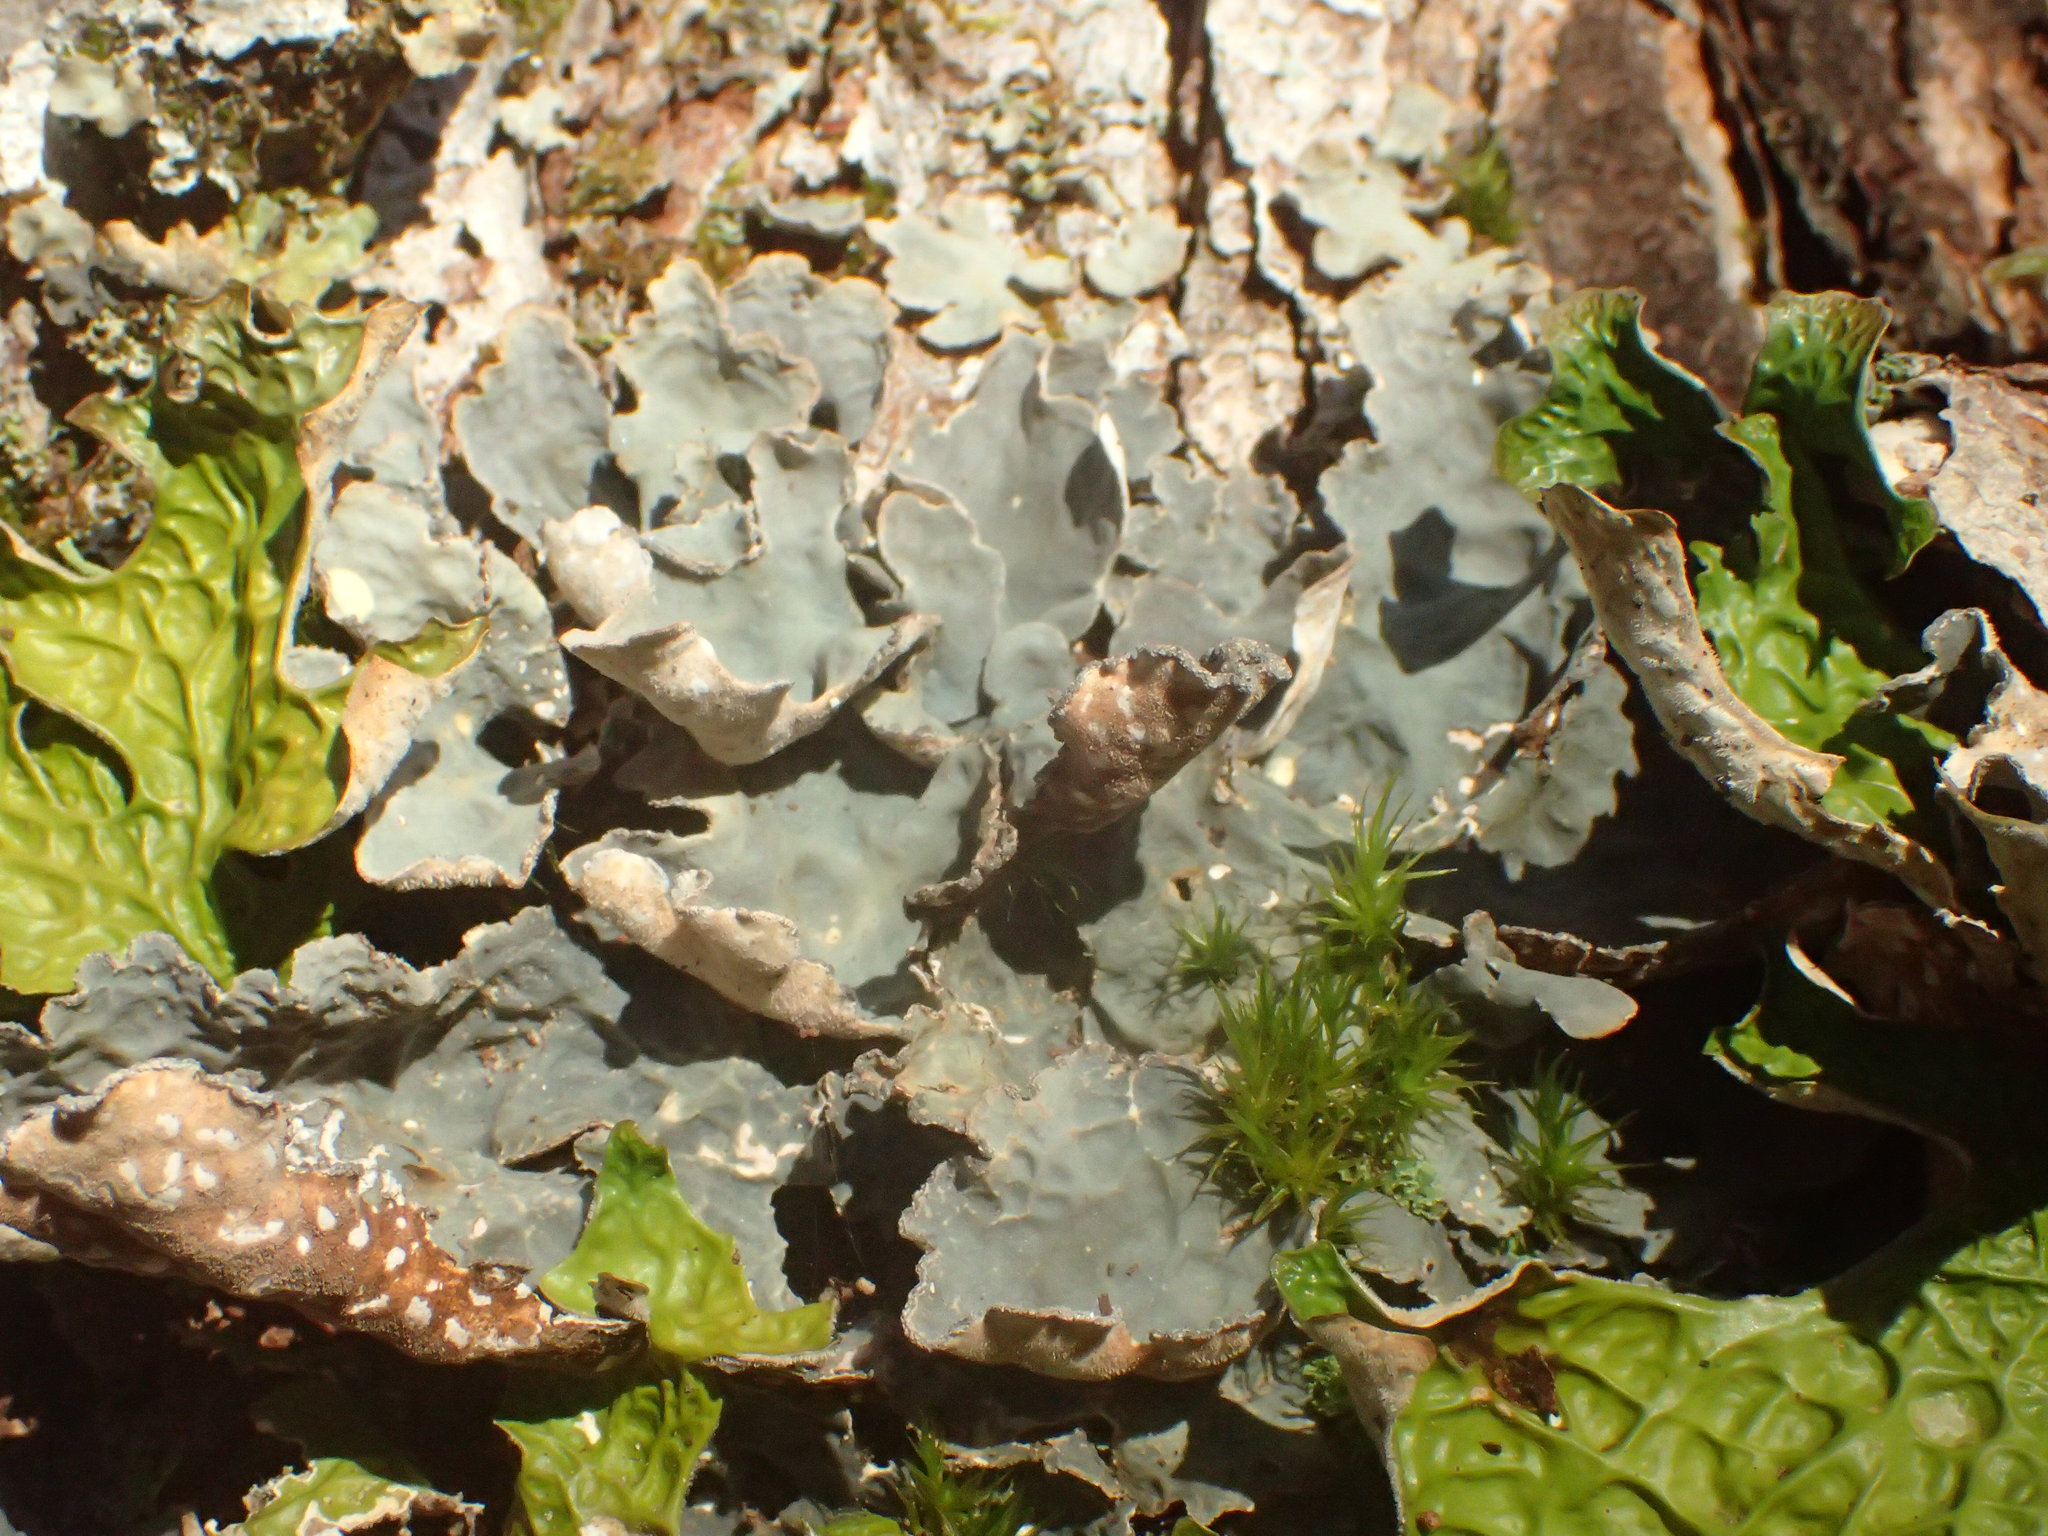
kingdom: Fungi
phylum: Ascomycota
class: Lecanoromycetes
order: Peltigerales
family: Lobariaceae
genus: Lobarina
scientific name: Lobarina scrobiculata
